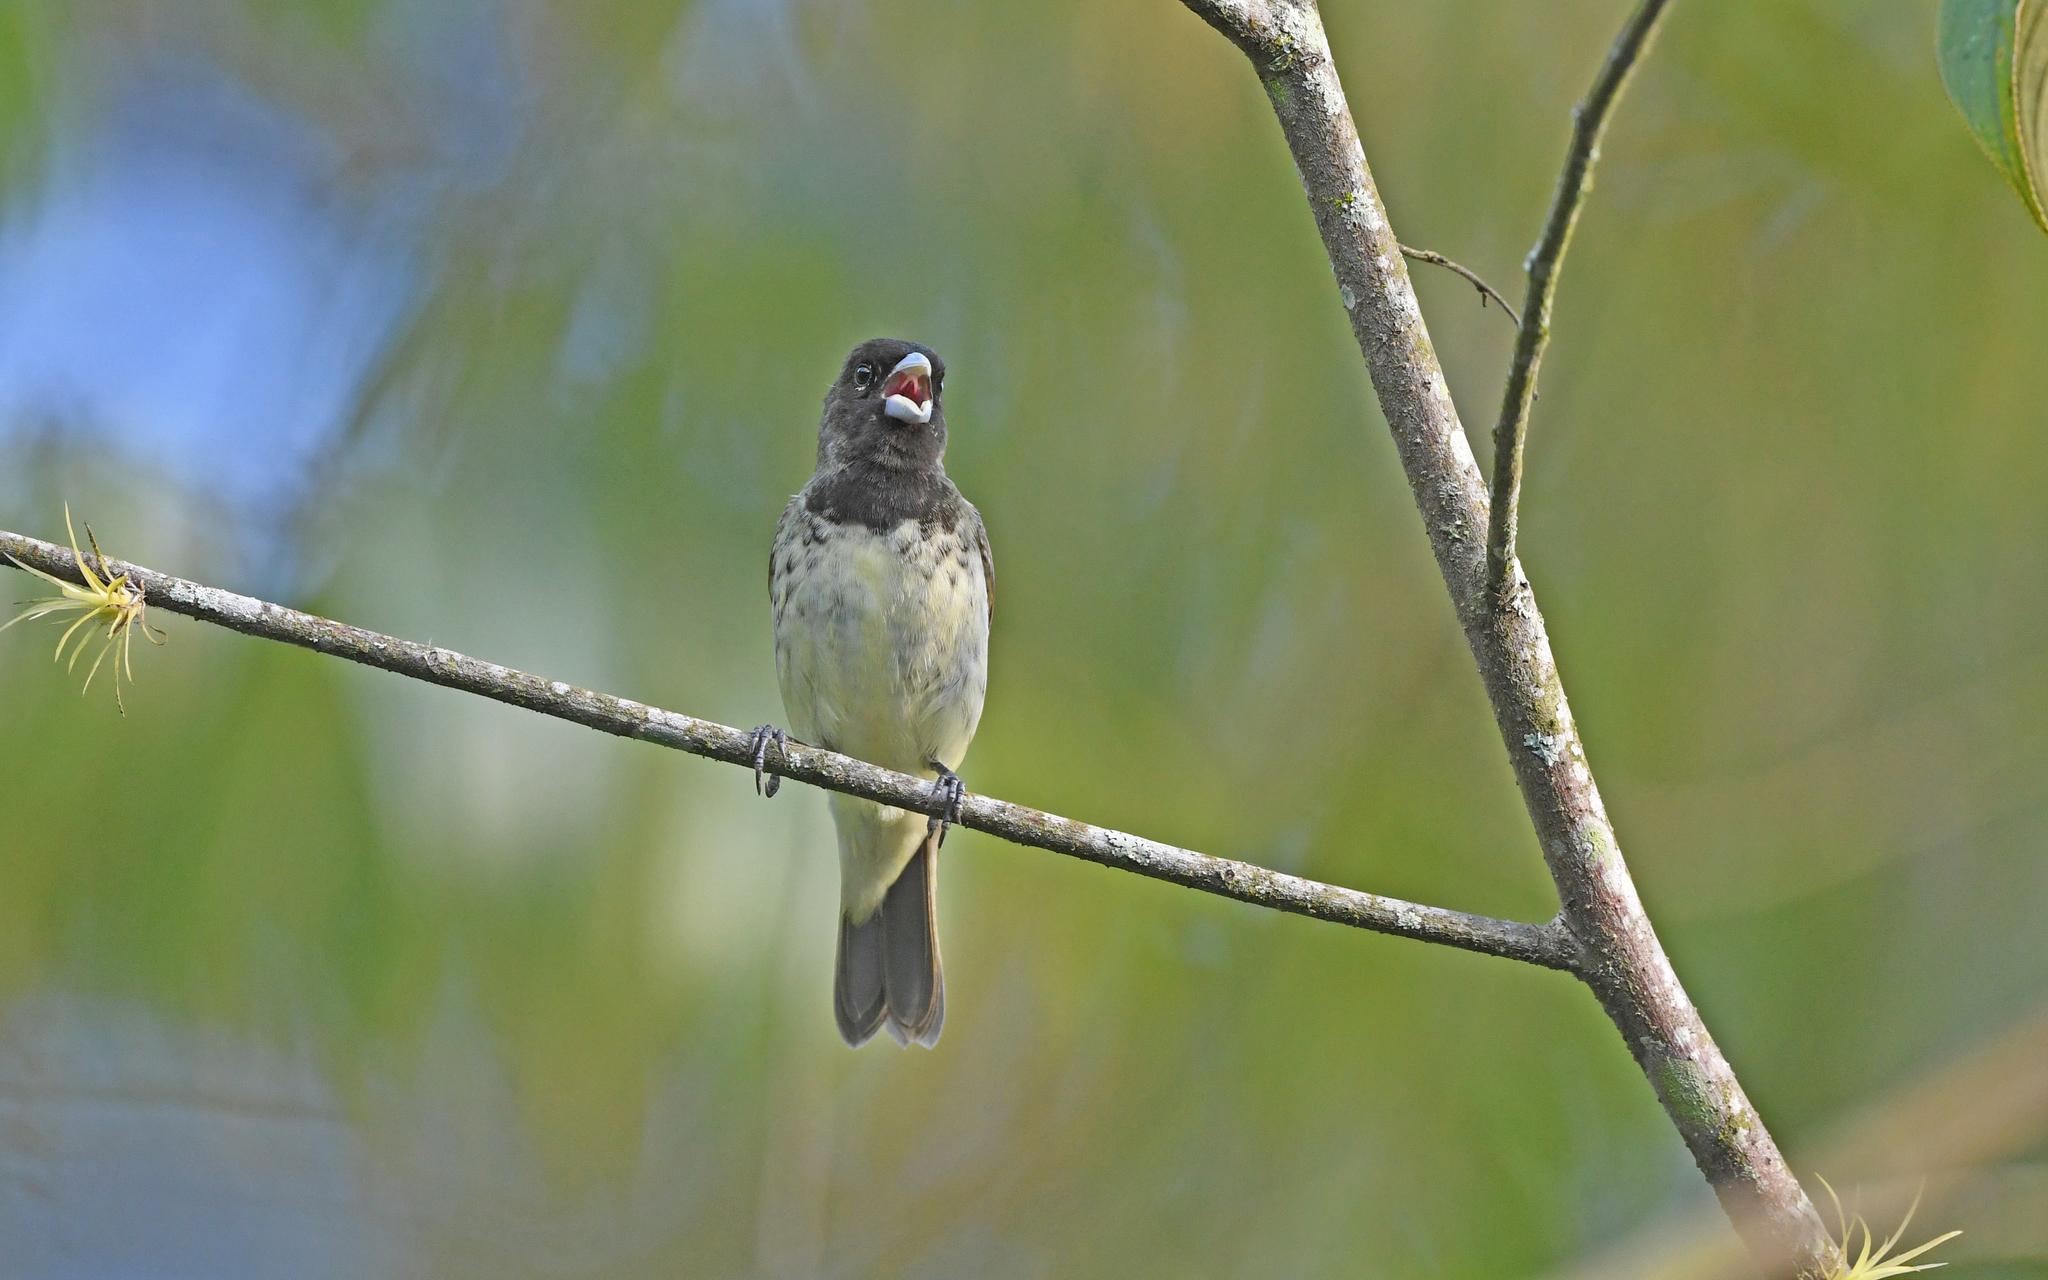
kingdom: Animalia
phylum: Chordata
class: Aves
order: Passeriformes
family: Thraupidae
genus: Sporophila
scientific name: Sporophila nigricollis
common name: Yellow-bellied seedeater
